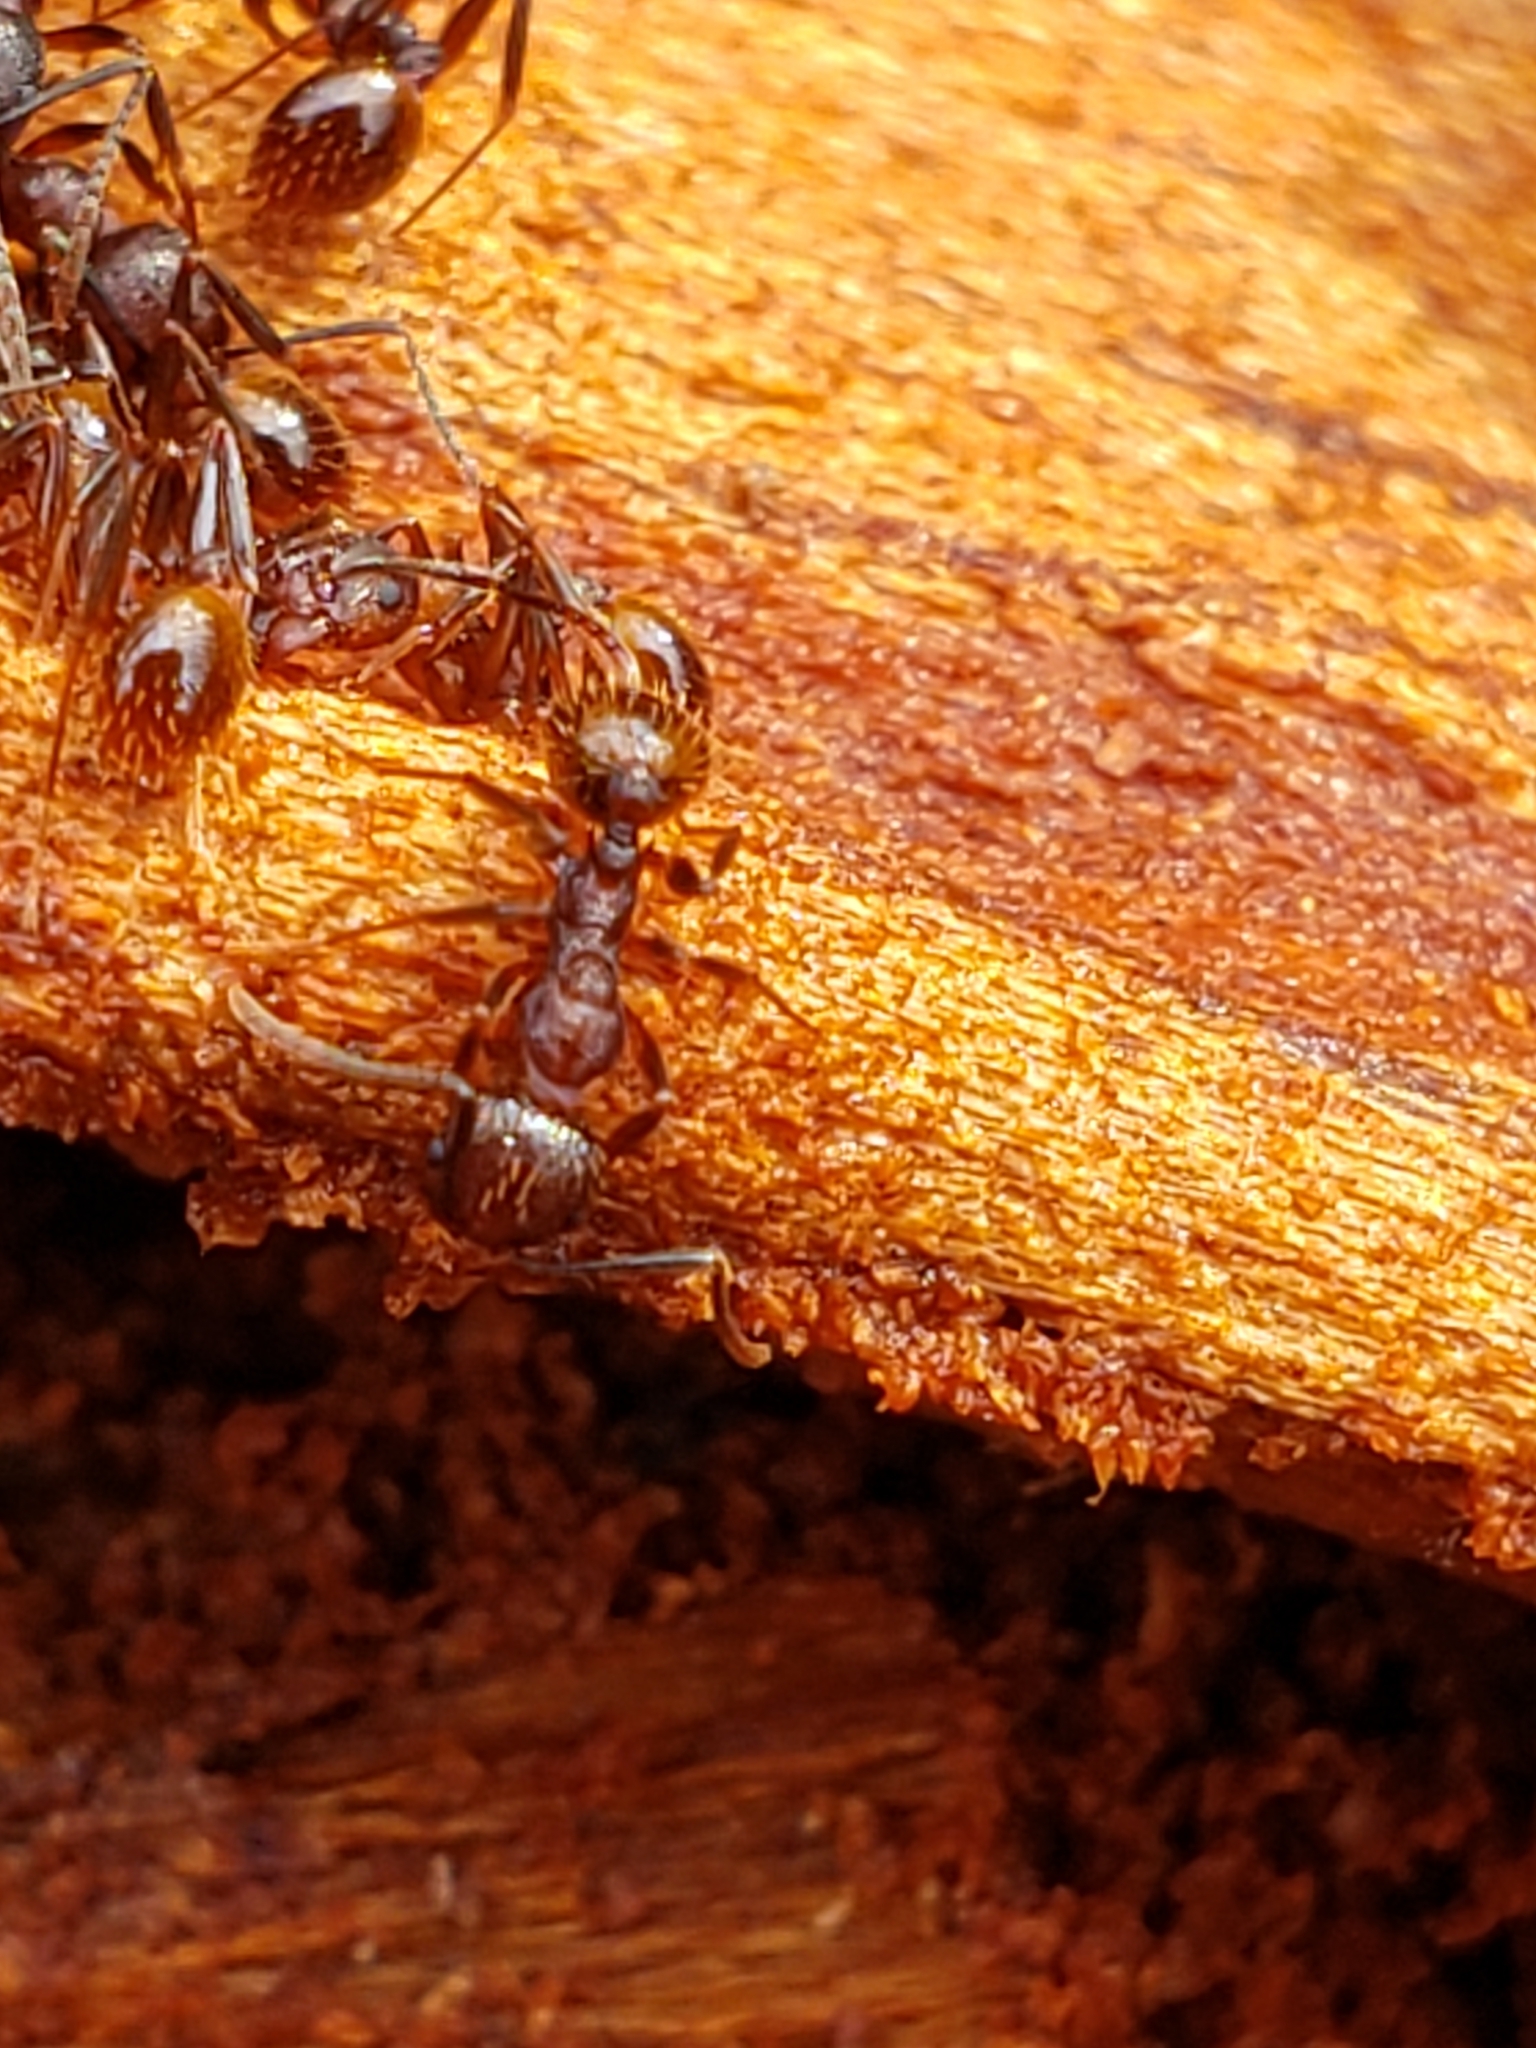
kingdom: Animalia
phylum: Arthropoda
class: Insecta
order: Hymenoptera
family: Formicidae
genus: Aphaenogaster
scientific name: Aphaenogaster fulva
